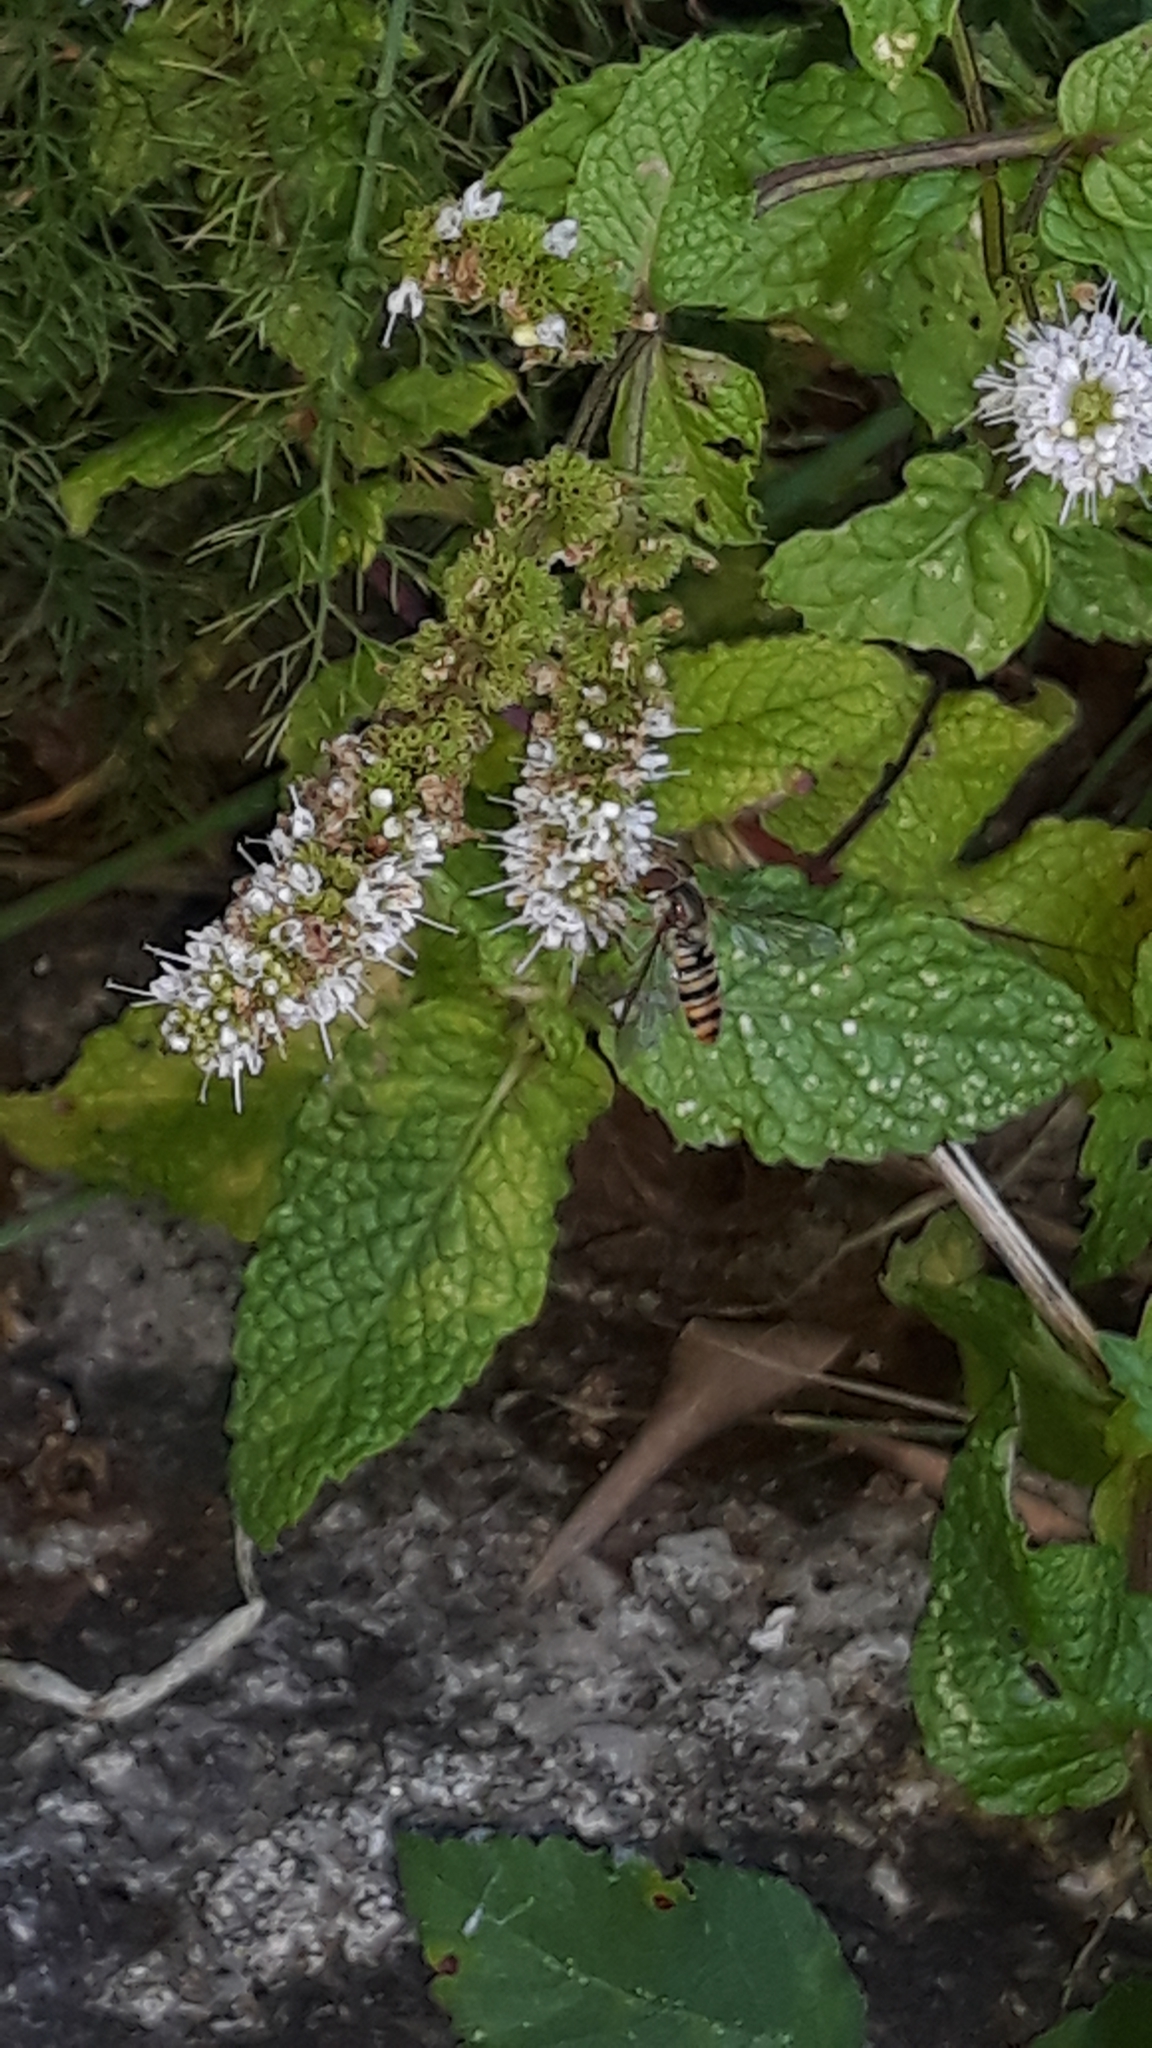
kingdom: Animalia
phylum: Arthropoda
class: Insecta
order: Diptera
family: Syrphidae
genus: Episyrphus
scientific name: Episyrphus balteatus
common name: Marmalade hoverfly
